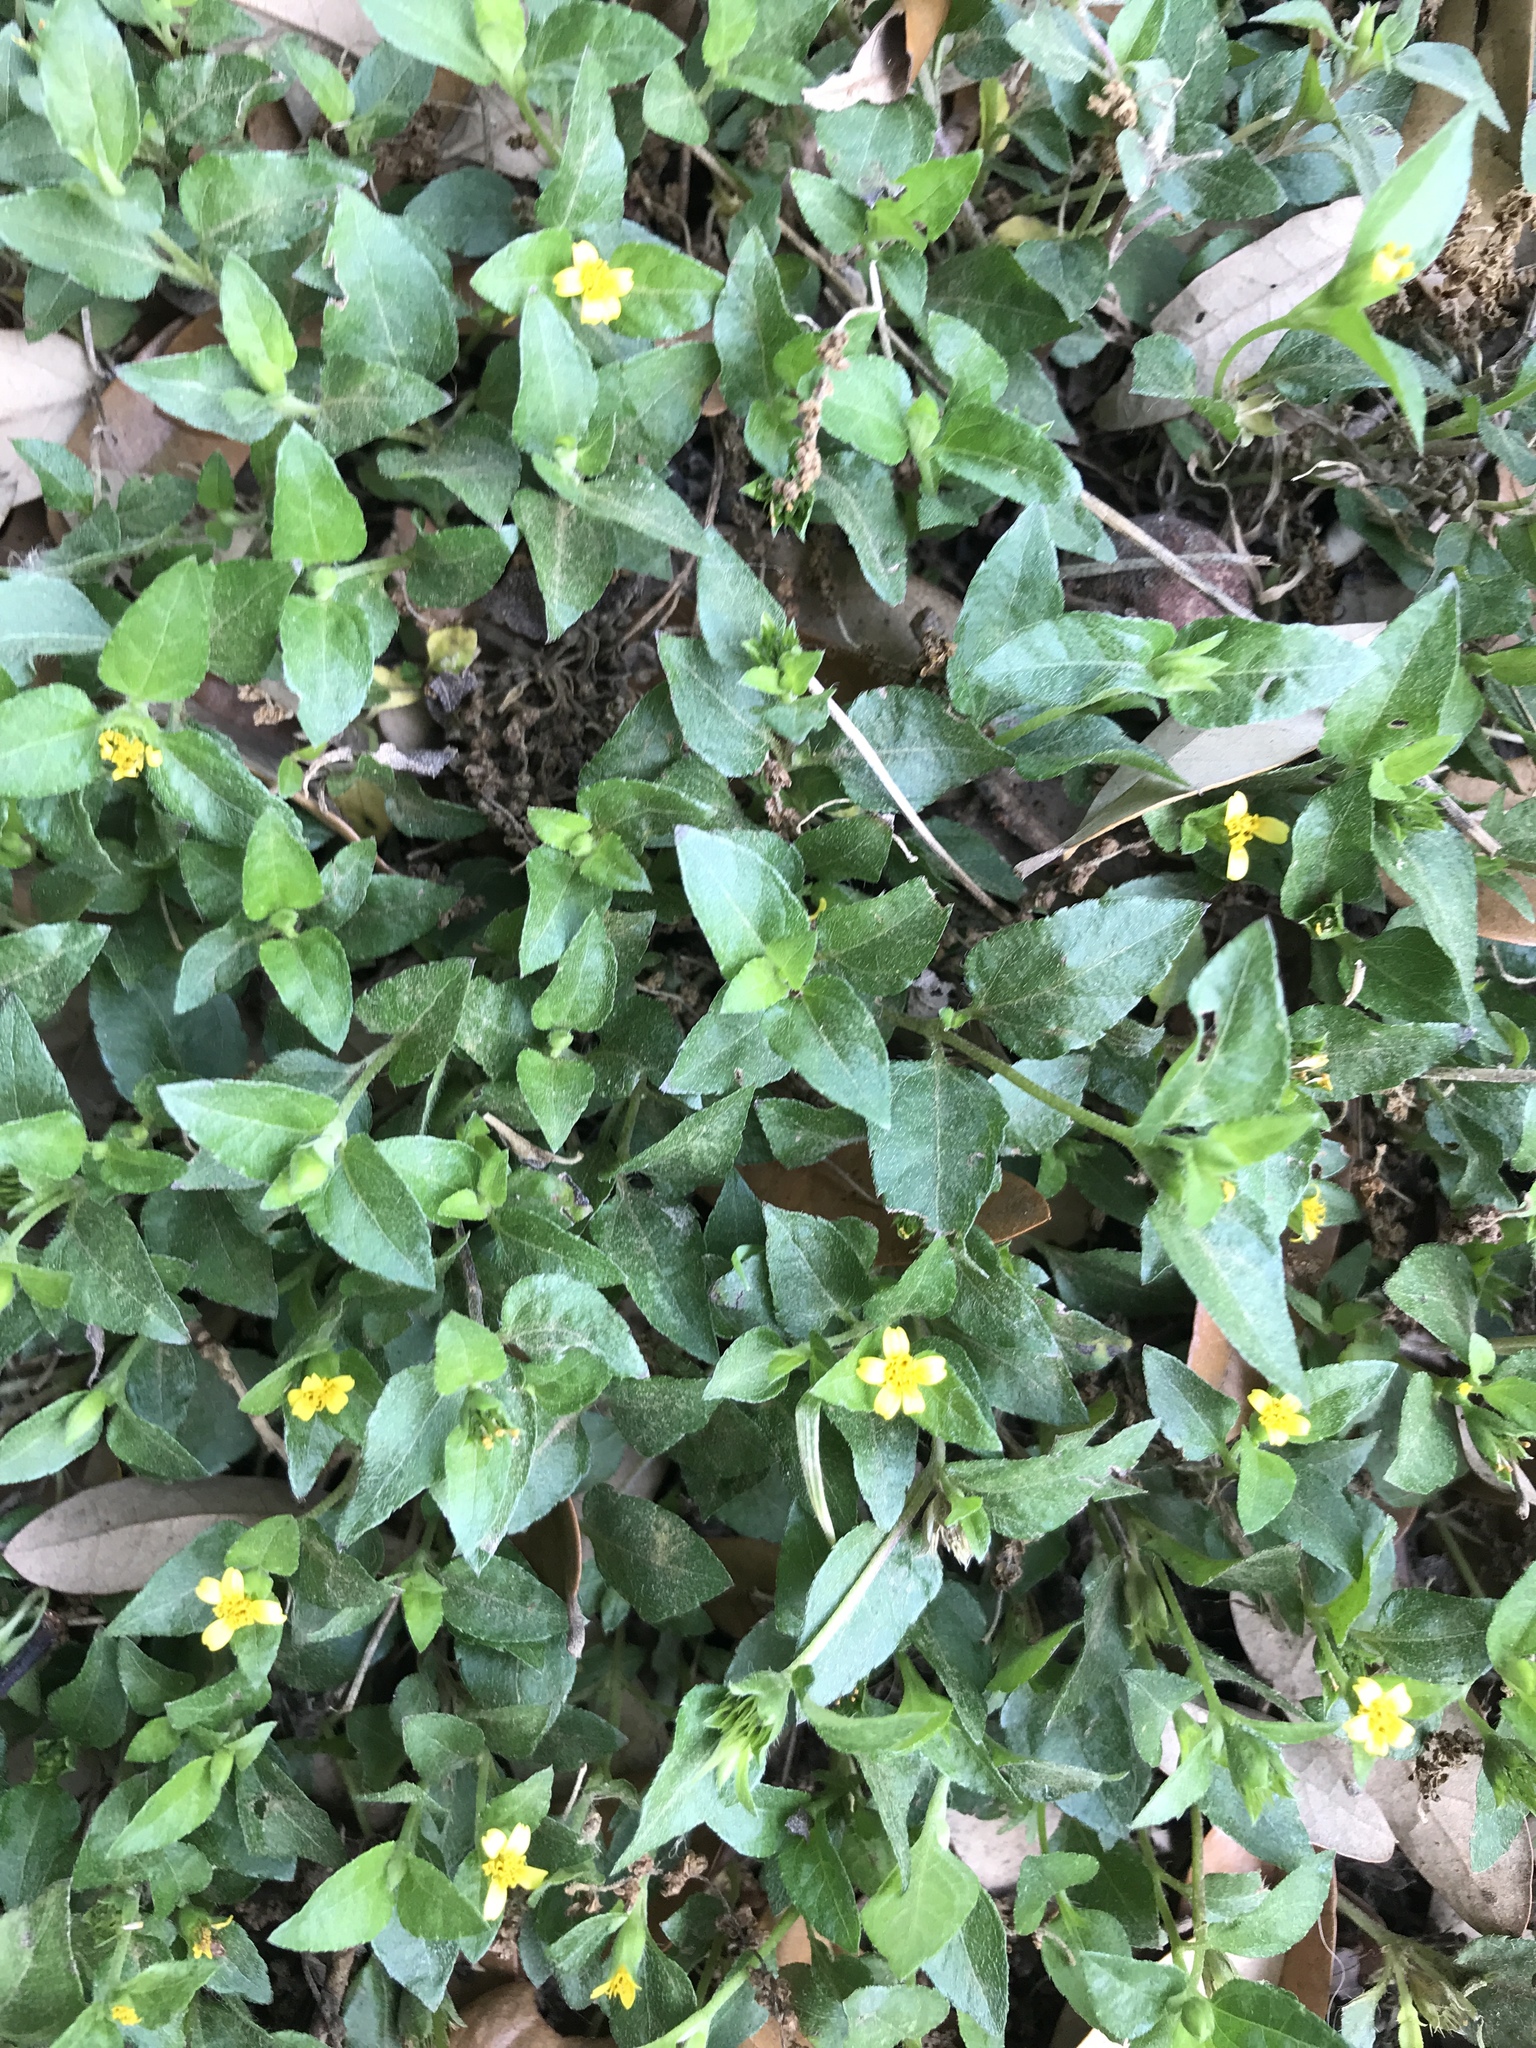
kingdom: Plantae
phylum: Tracheophyta
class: Magnoliopsida
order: Asterales
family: Asteraceae
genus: Calyptocarpus
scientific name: Calyptocarpus vialis
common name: Straggler daisy
